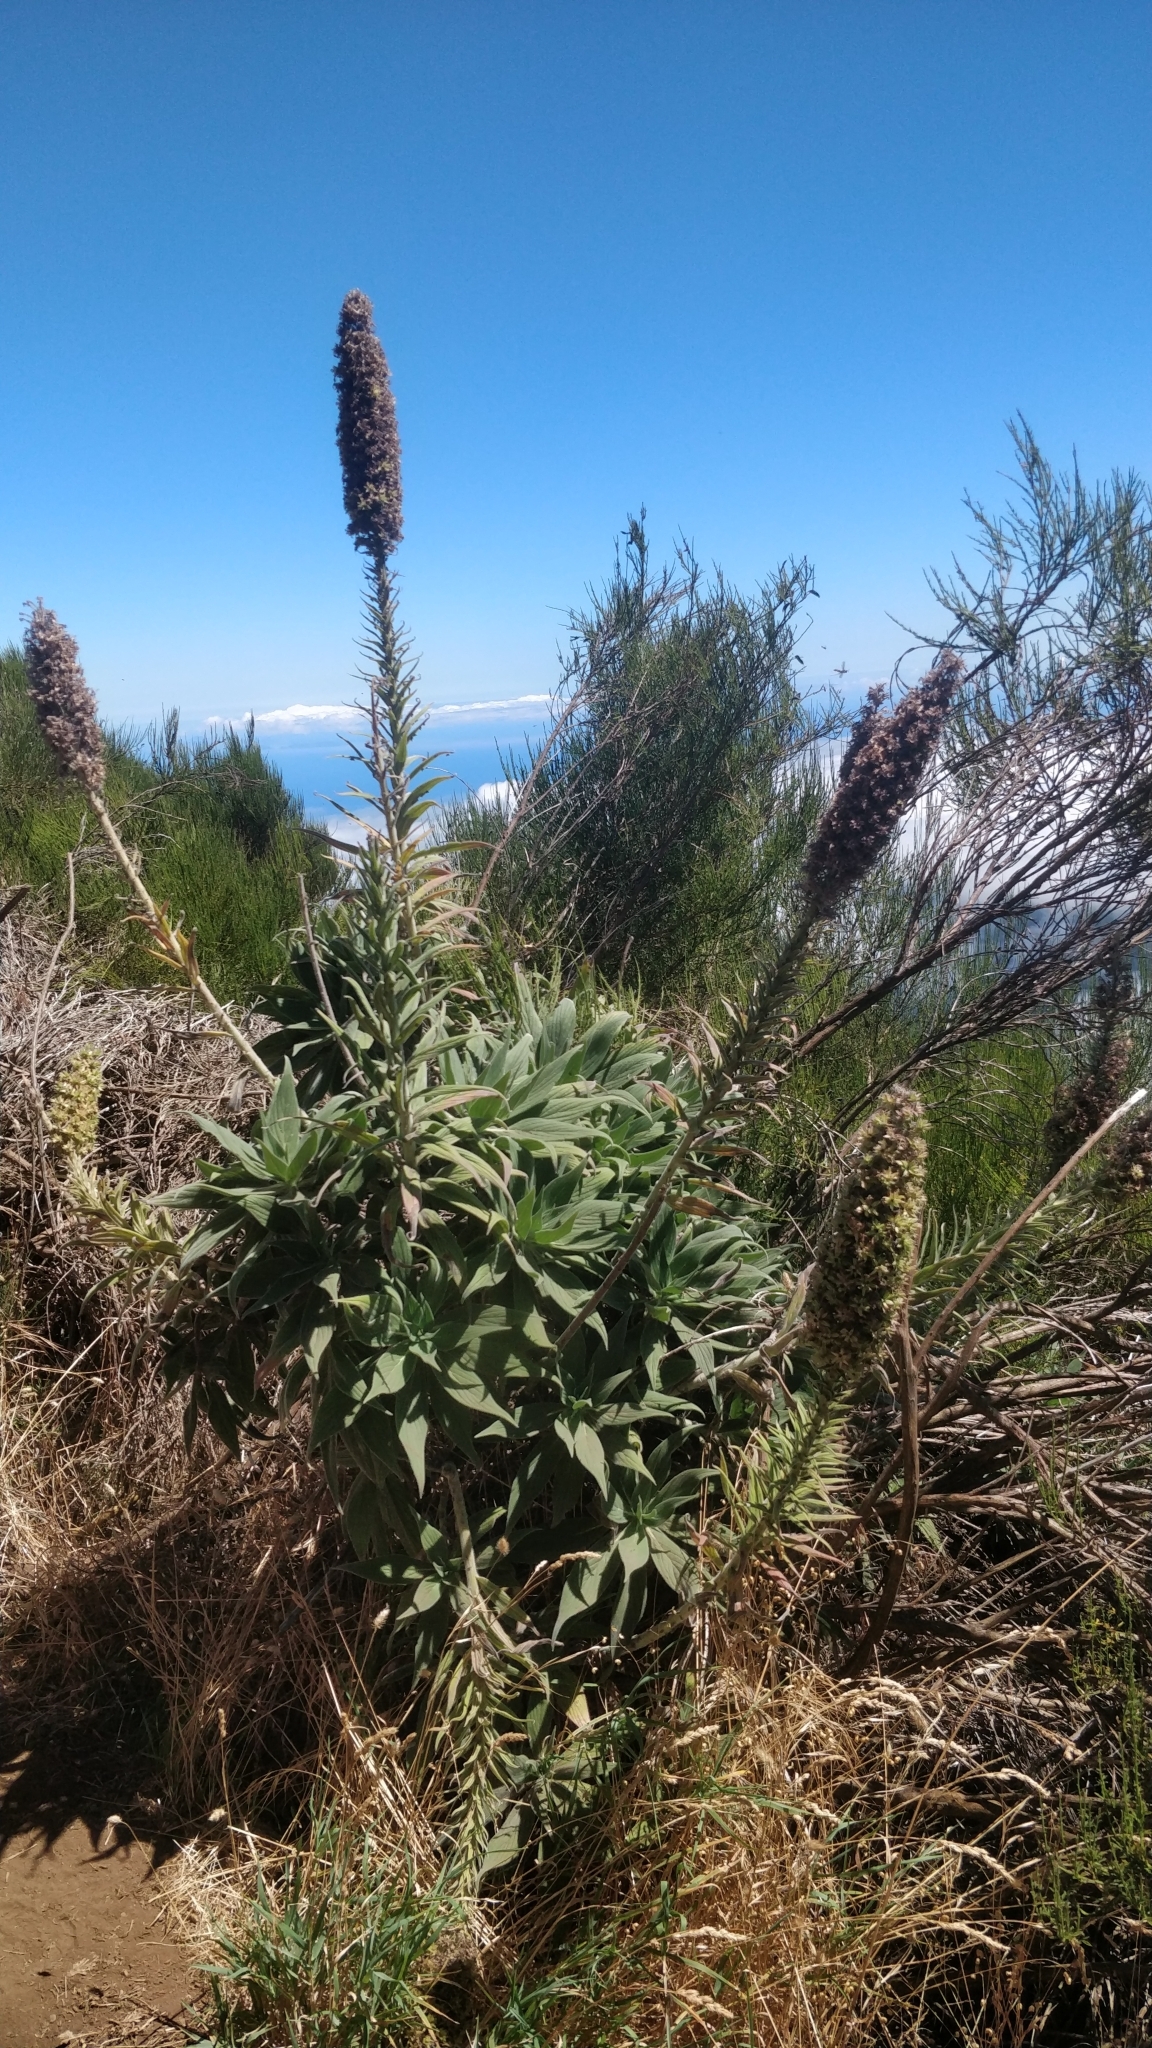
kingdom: Plantae
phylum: Tracheophyta
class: Magnoliopsida
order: Boraginales
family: Boraginaceae
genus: Echium
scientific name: Echium candicans
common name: Pride of madeira
